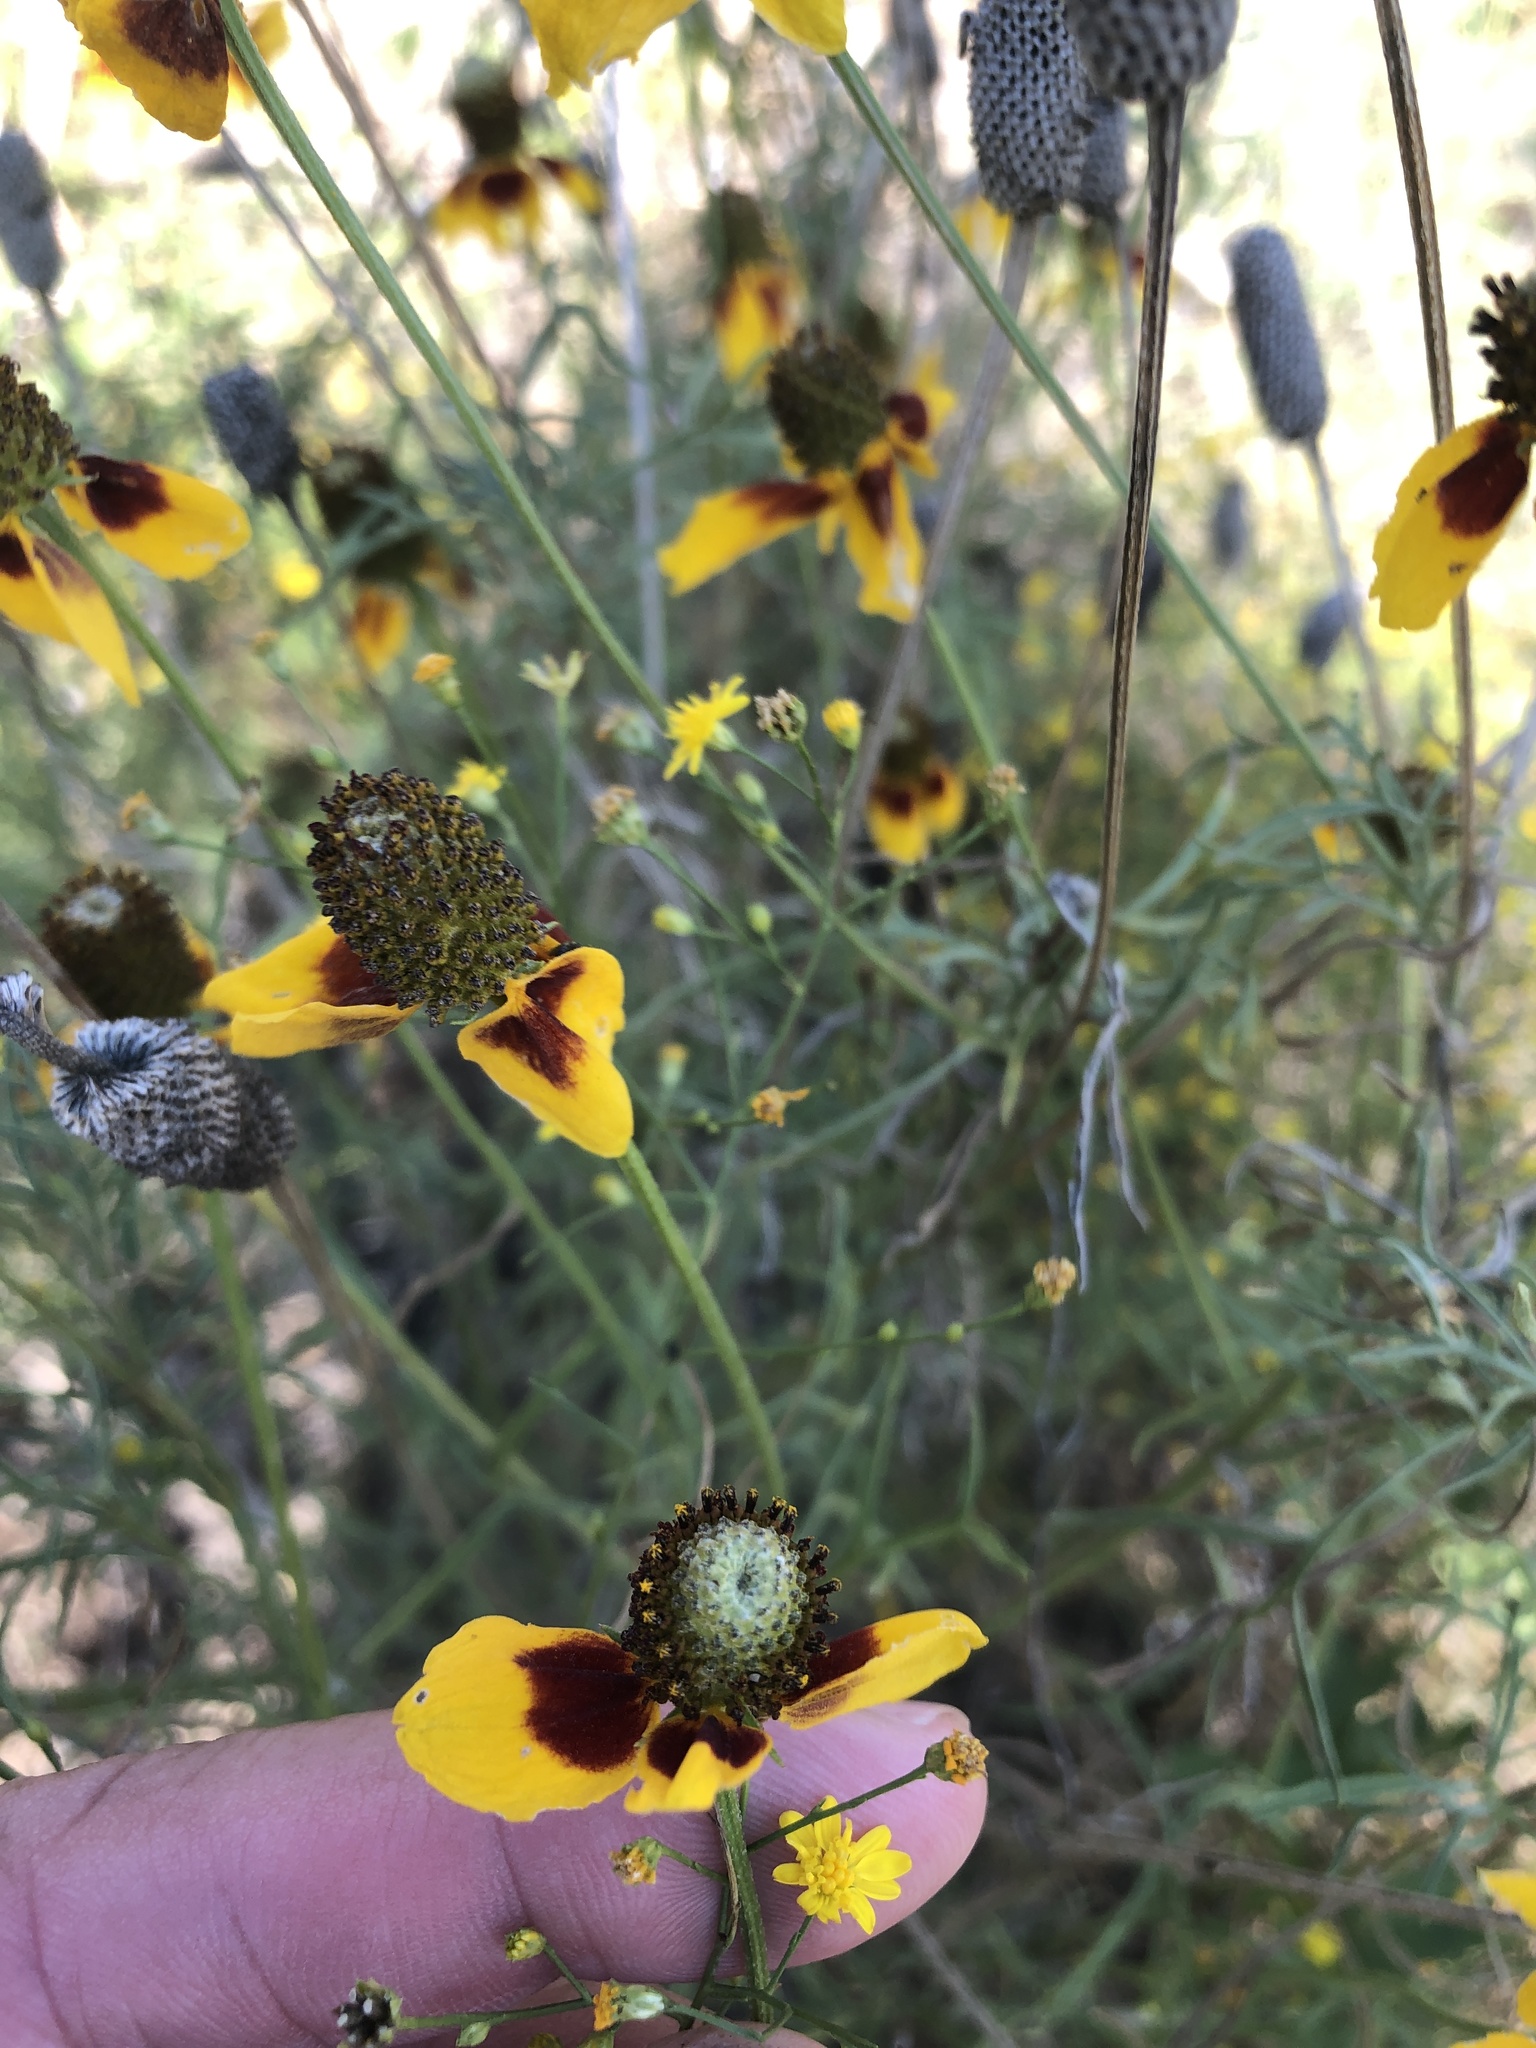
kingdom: Plantae
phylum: Tracheophyta
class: Magnoliopsida
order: Asterales
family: Asteraceae
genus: Ratibida
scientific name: Ratibida columnifera
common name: Prairie coneflower
